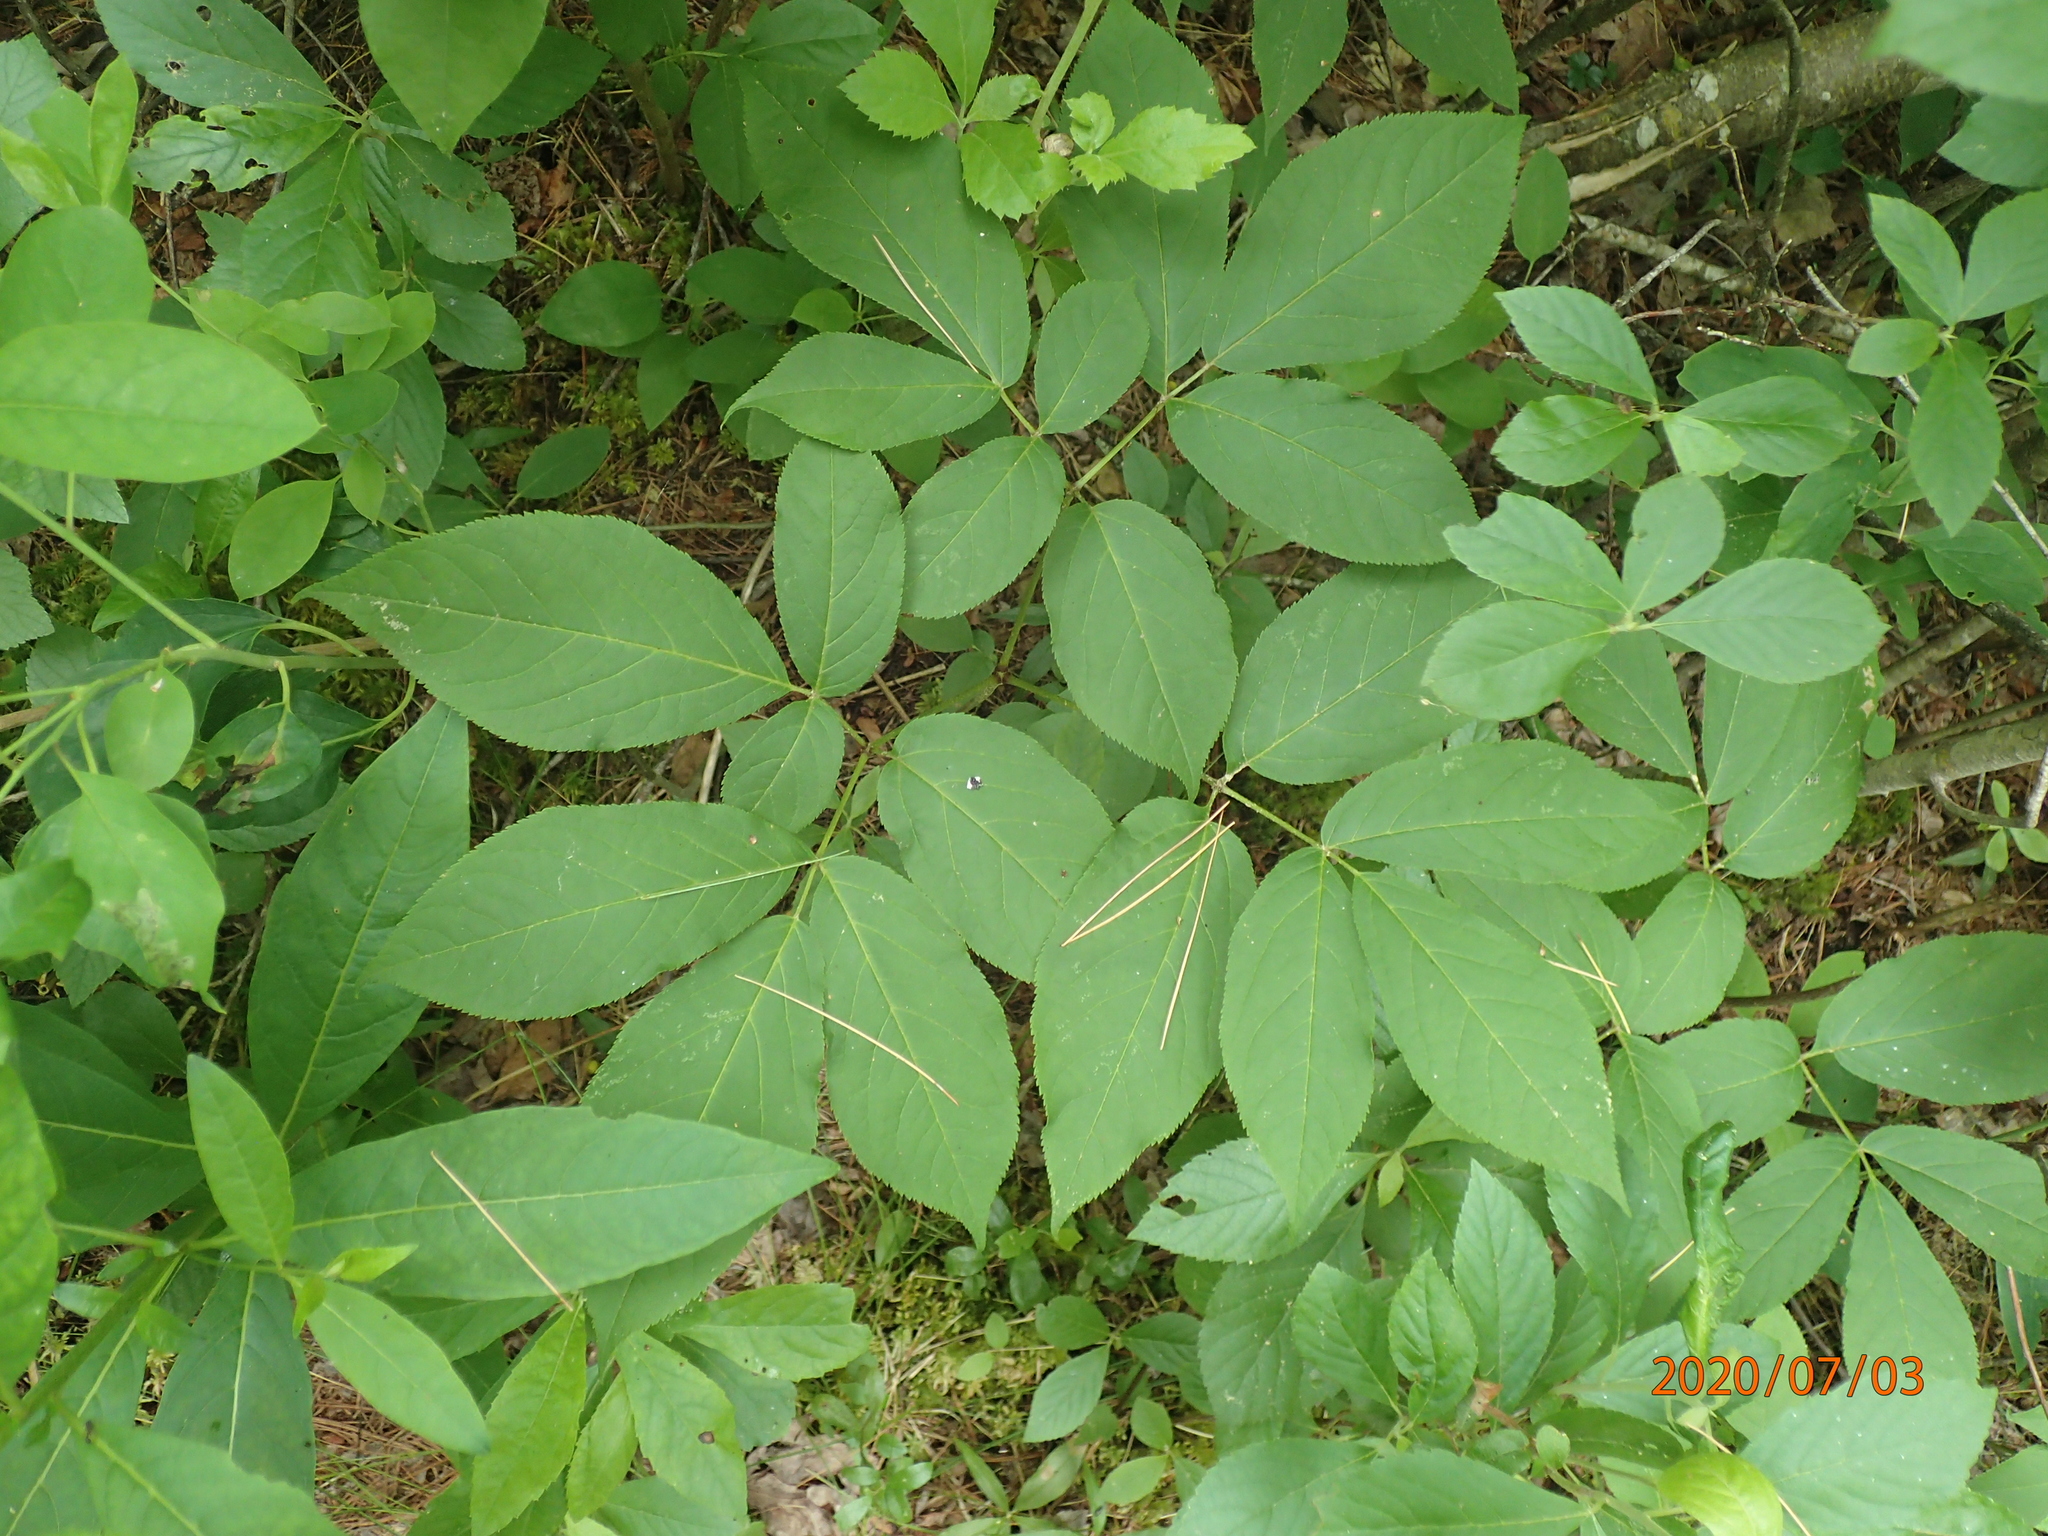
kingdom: Plantae
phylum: Tracheophyta
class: Magnoliopsida
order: Apiales
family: Araliaceae
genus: Aralia
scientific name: Aralia nudicaulis
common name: Wild sarsaparilla
